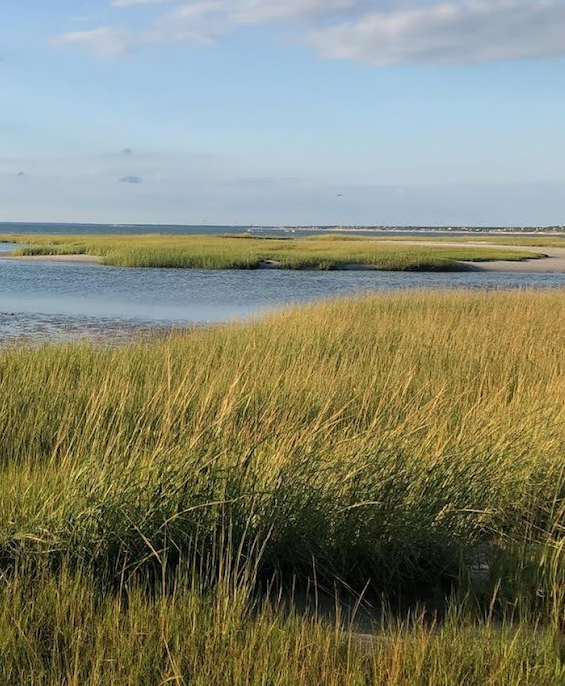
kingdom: Plantae
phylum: Tracheophyta
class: Liliopsida
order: Poales
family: Poaceae
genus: Sporobolus
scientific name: Sporobolus alterniflorus
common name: Atlantic cordgrass
